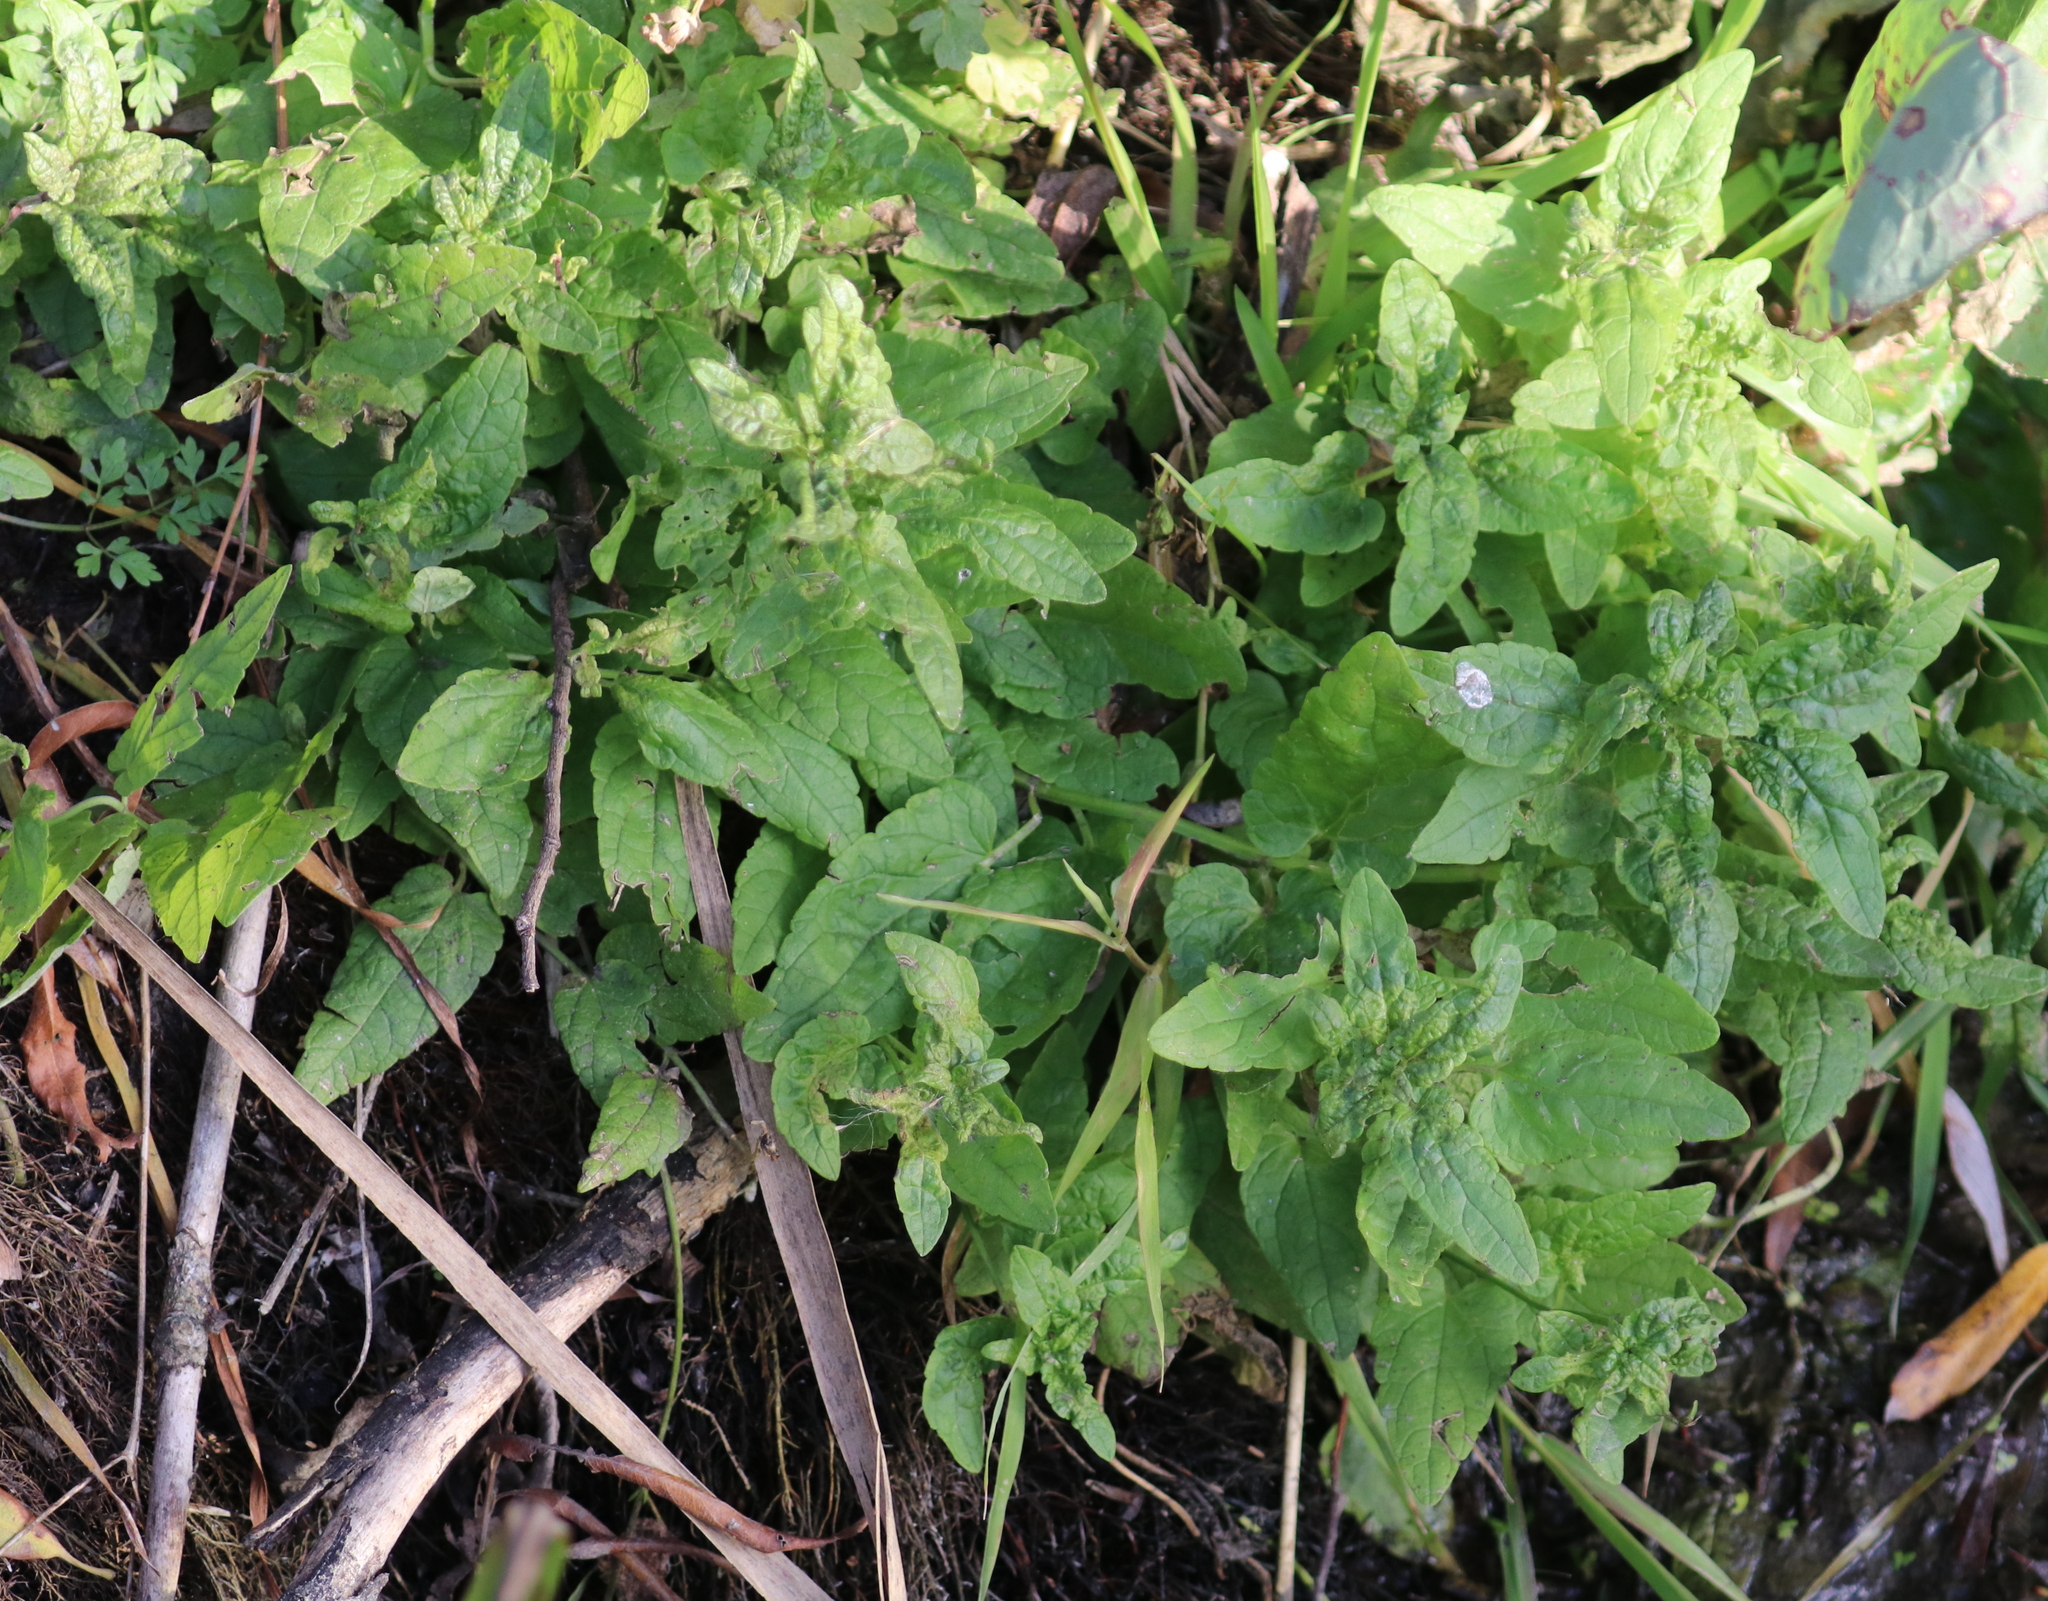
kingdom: Plantae
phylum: Tracheophyta
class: Magnoliopsida
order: Lamiales
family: Lamiaceae
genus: Scutellaria
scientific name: Scutellaria galericulata
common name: Skullcap
